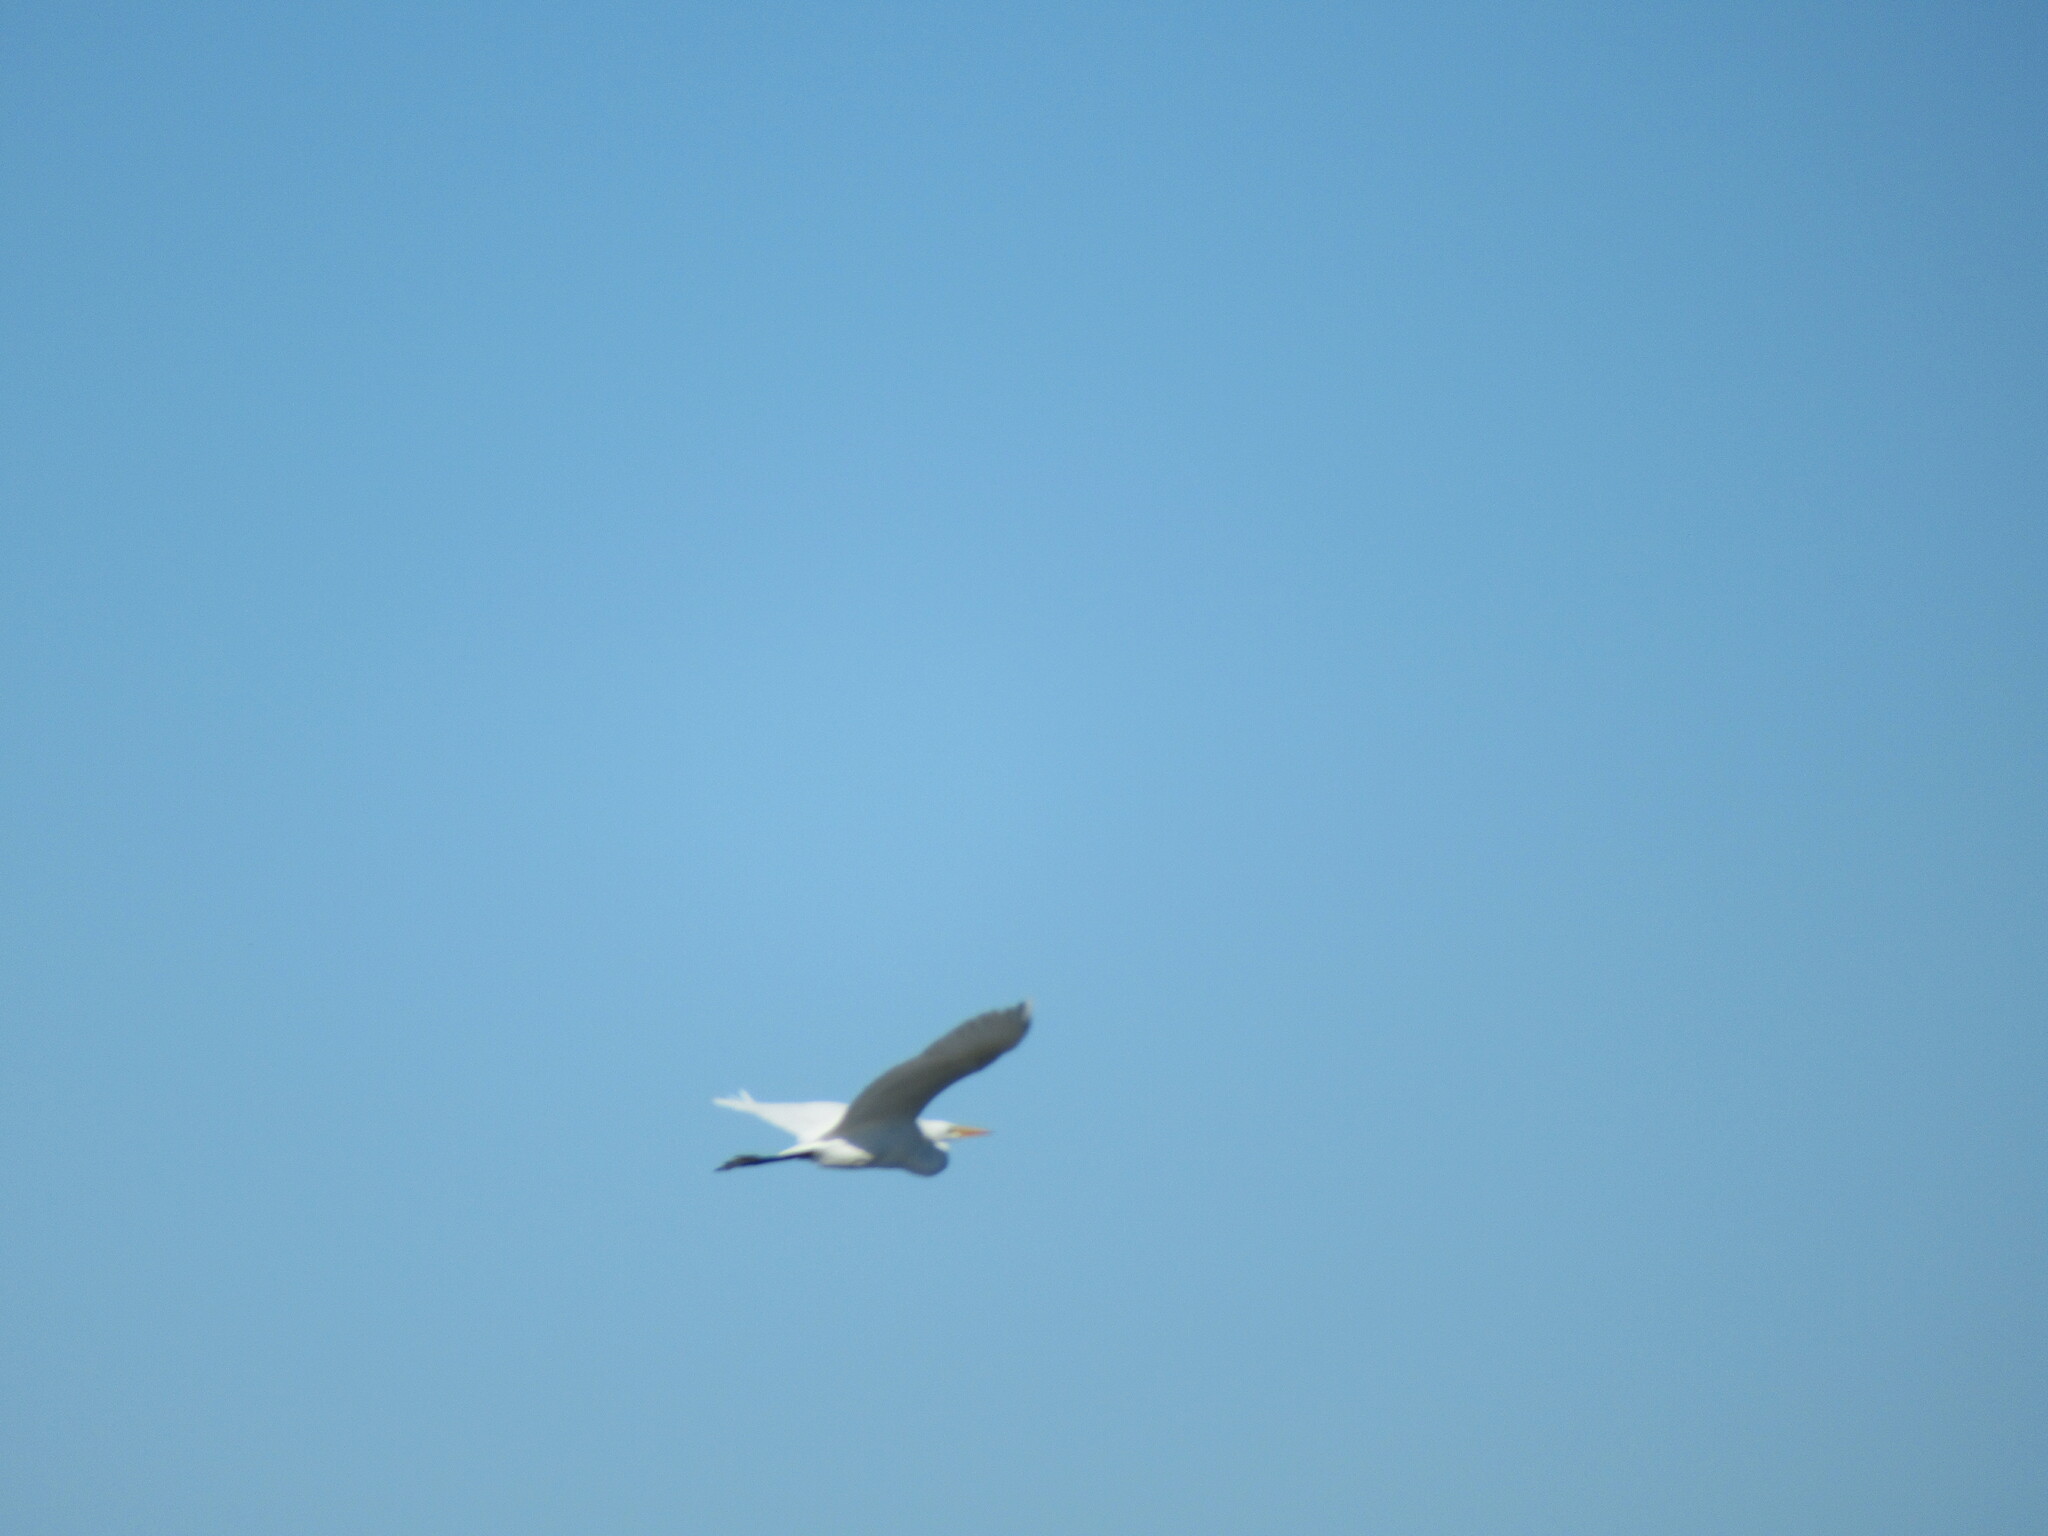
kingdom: Animalia
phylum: Chordata
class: Aves
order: Pelecaniformes
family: Ardeidae
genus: Ardea
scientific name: Ardea alba
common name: Great egret
